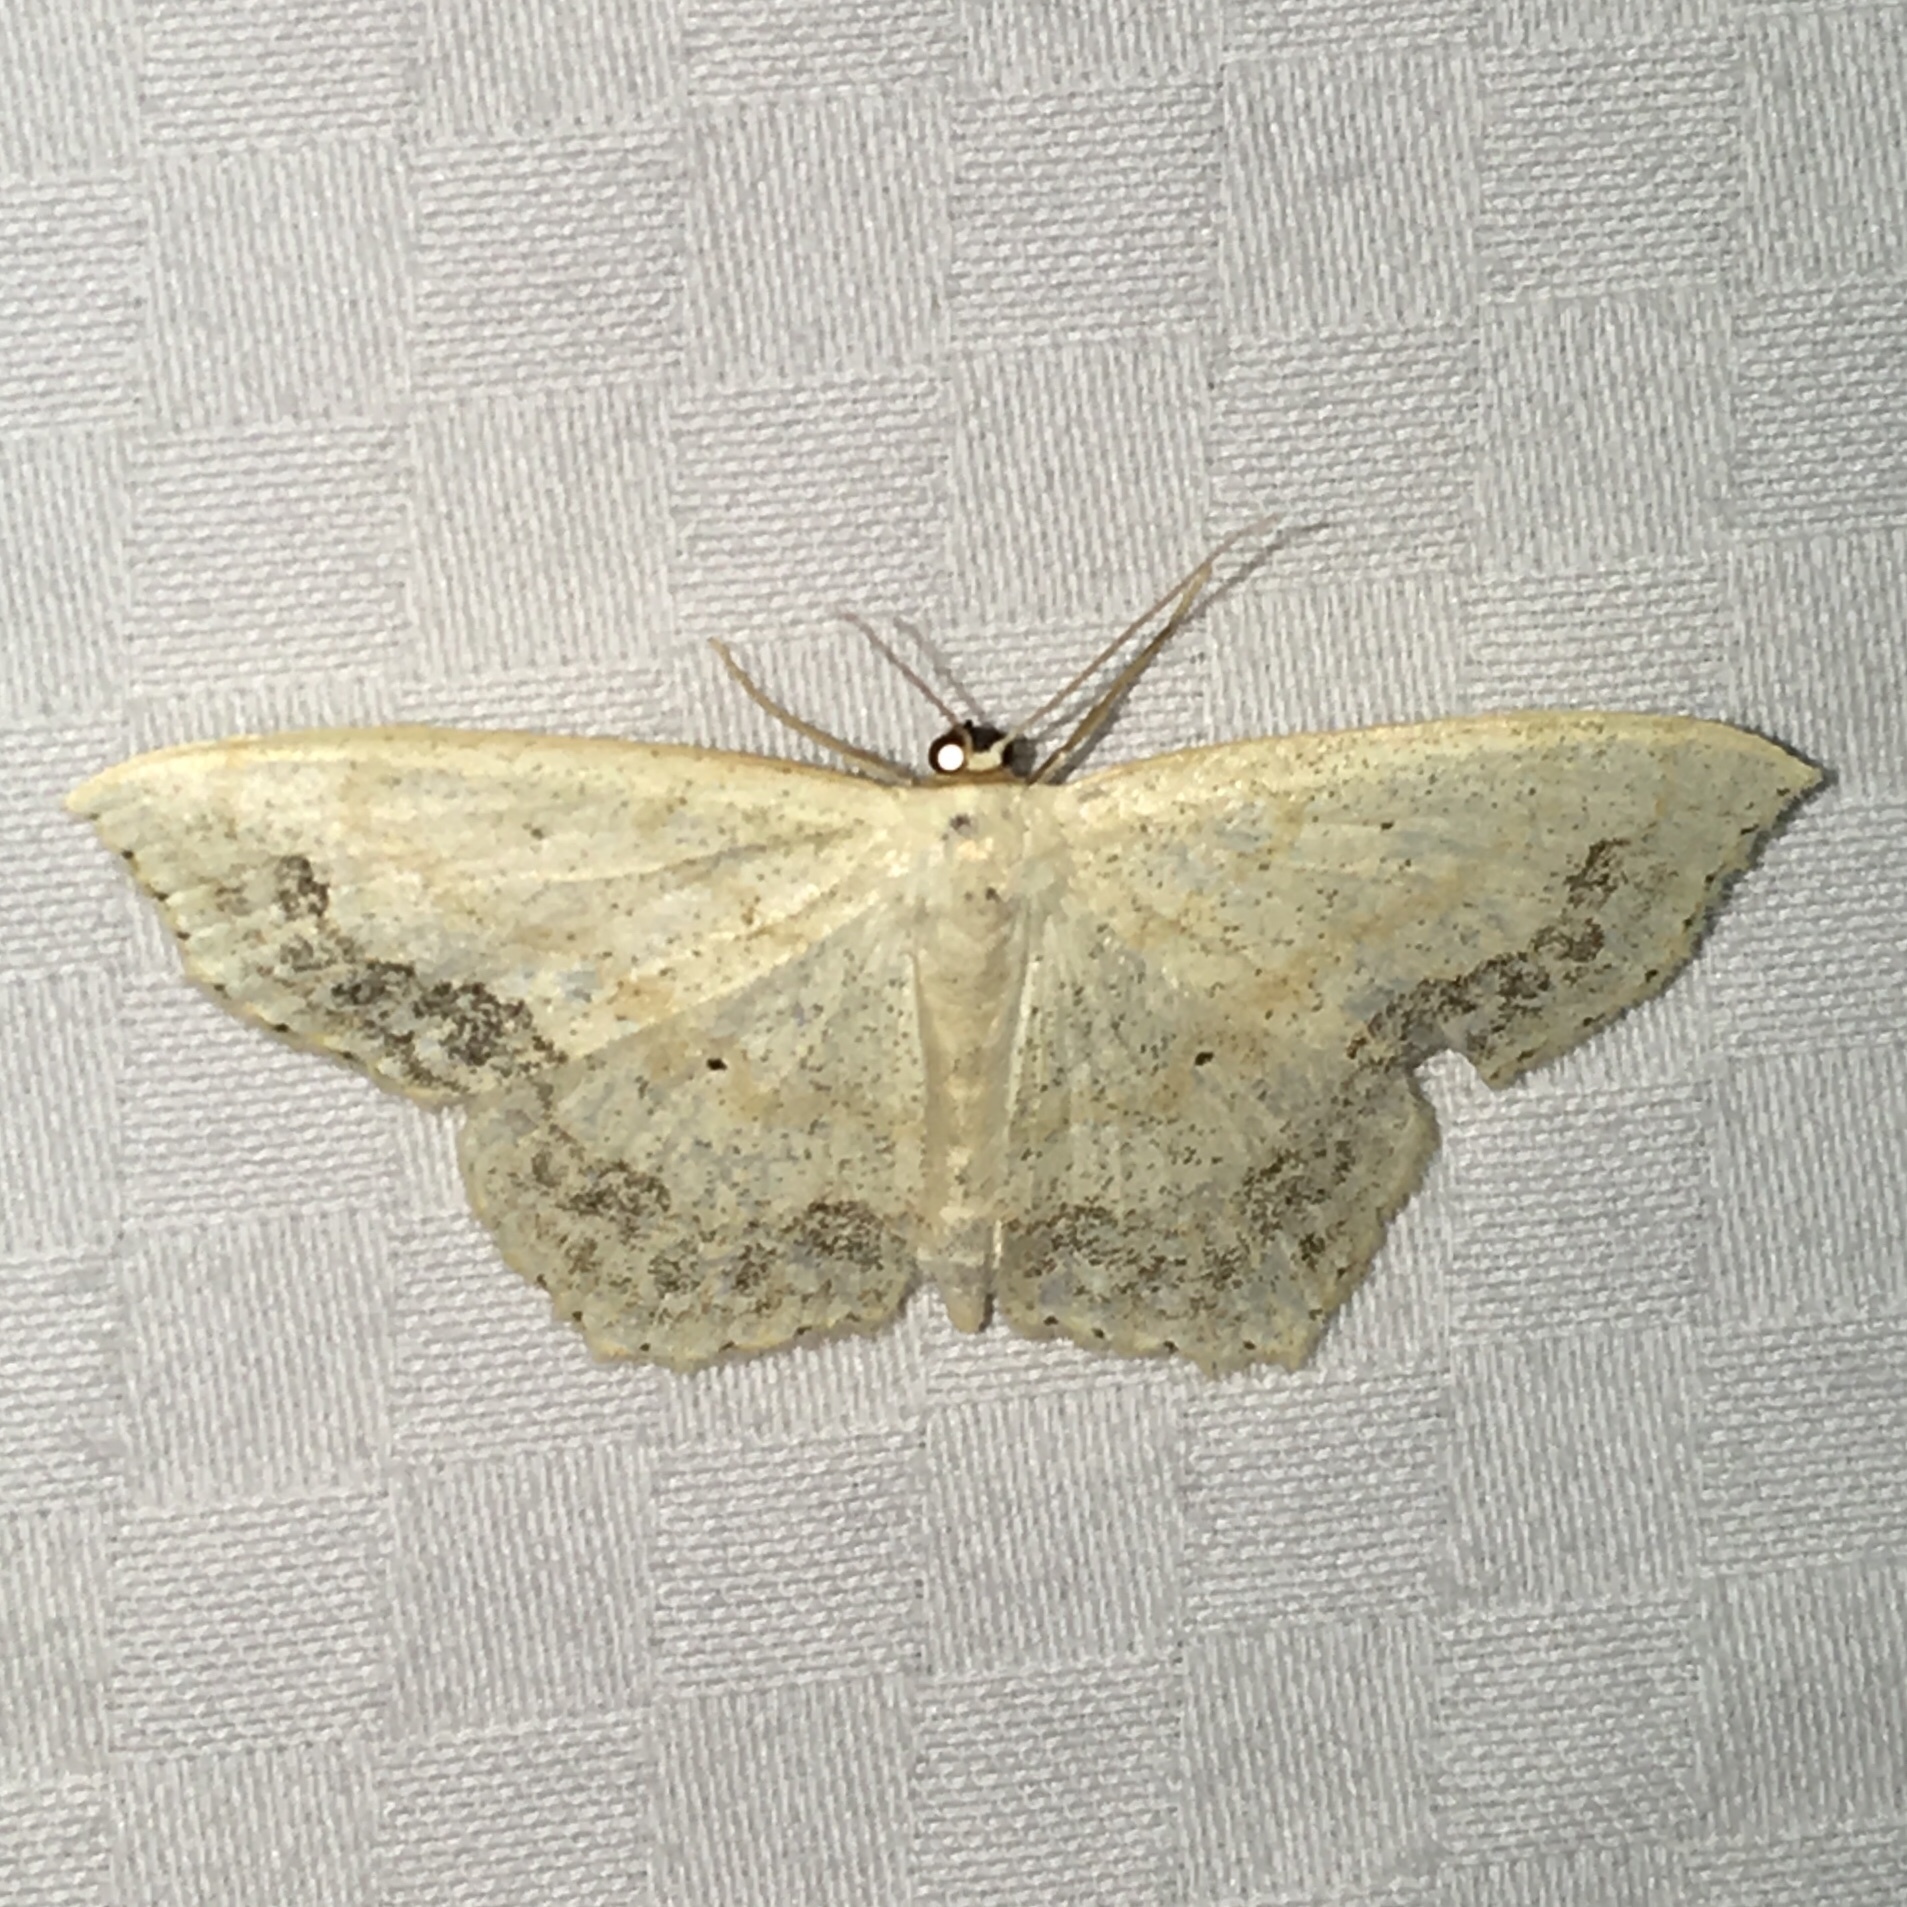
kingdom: Animalia
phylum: Arthropoda
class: Insecta
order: Lepidoptera
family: Geometridae
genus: Scopula
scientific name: Scopula limboundata
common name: Large lace border
